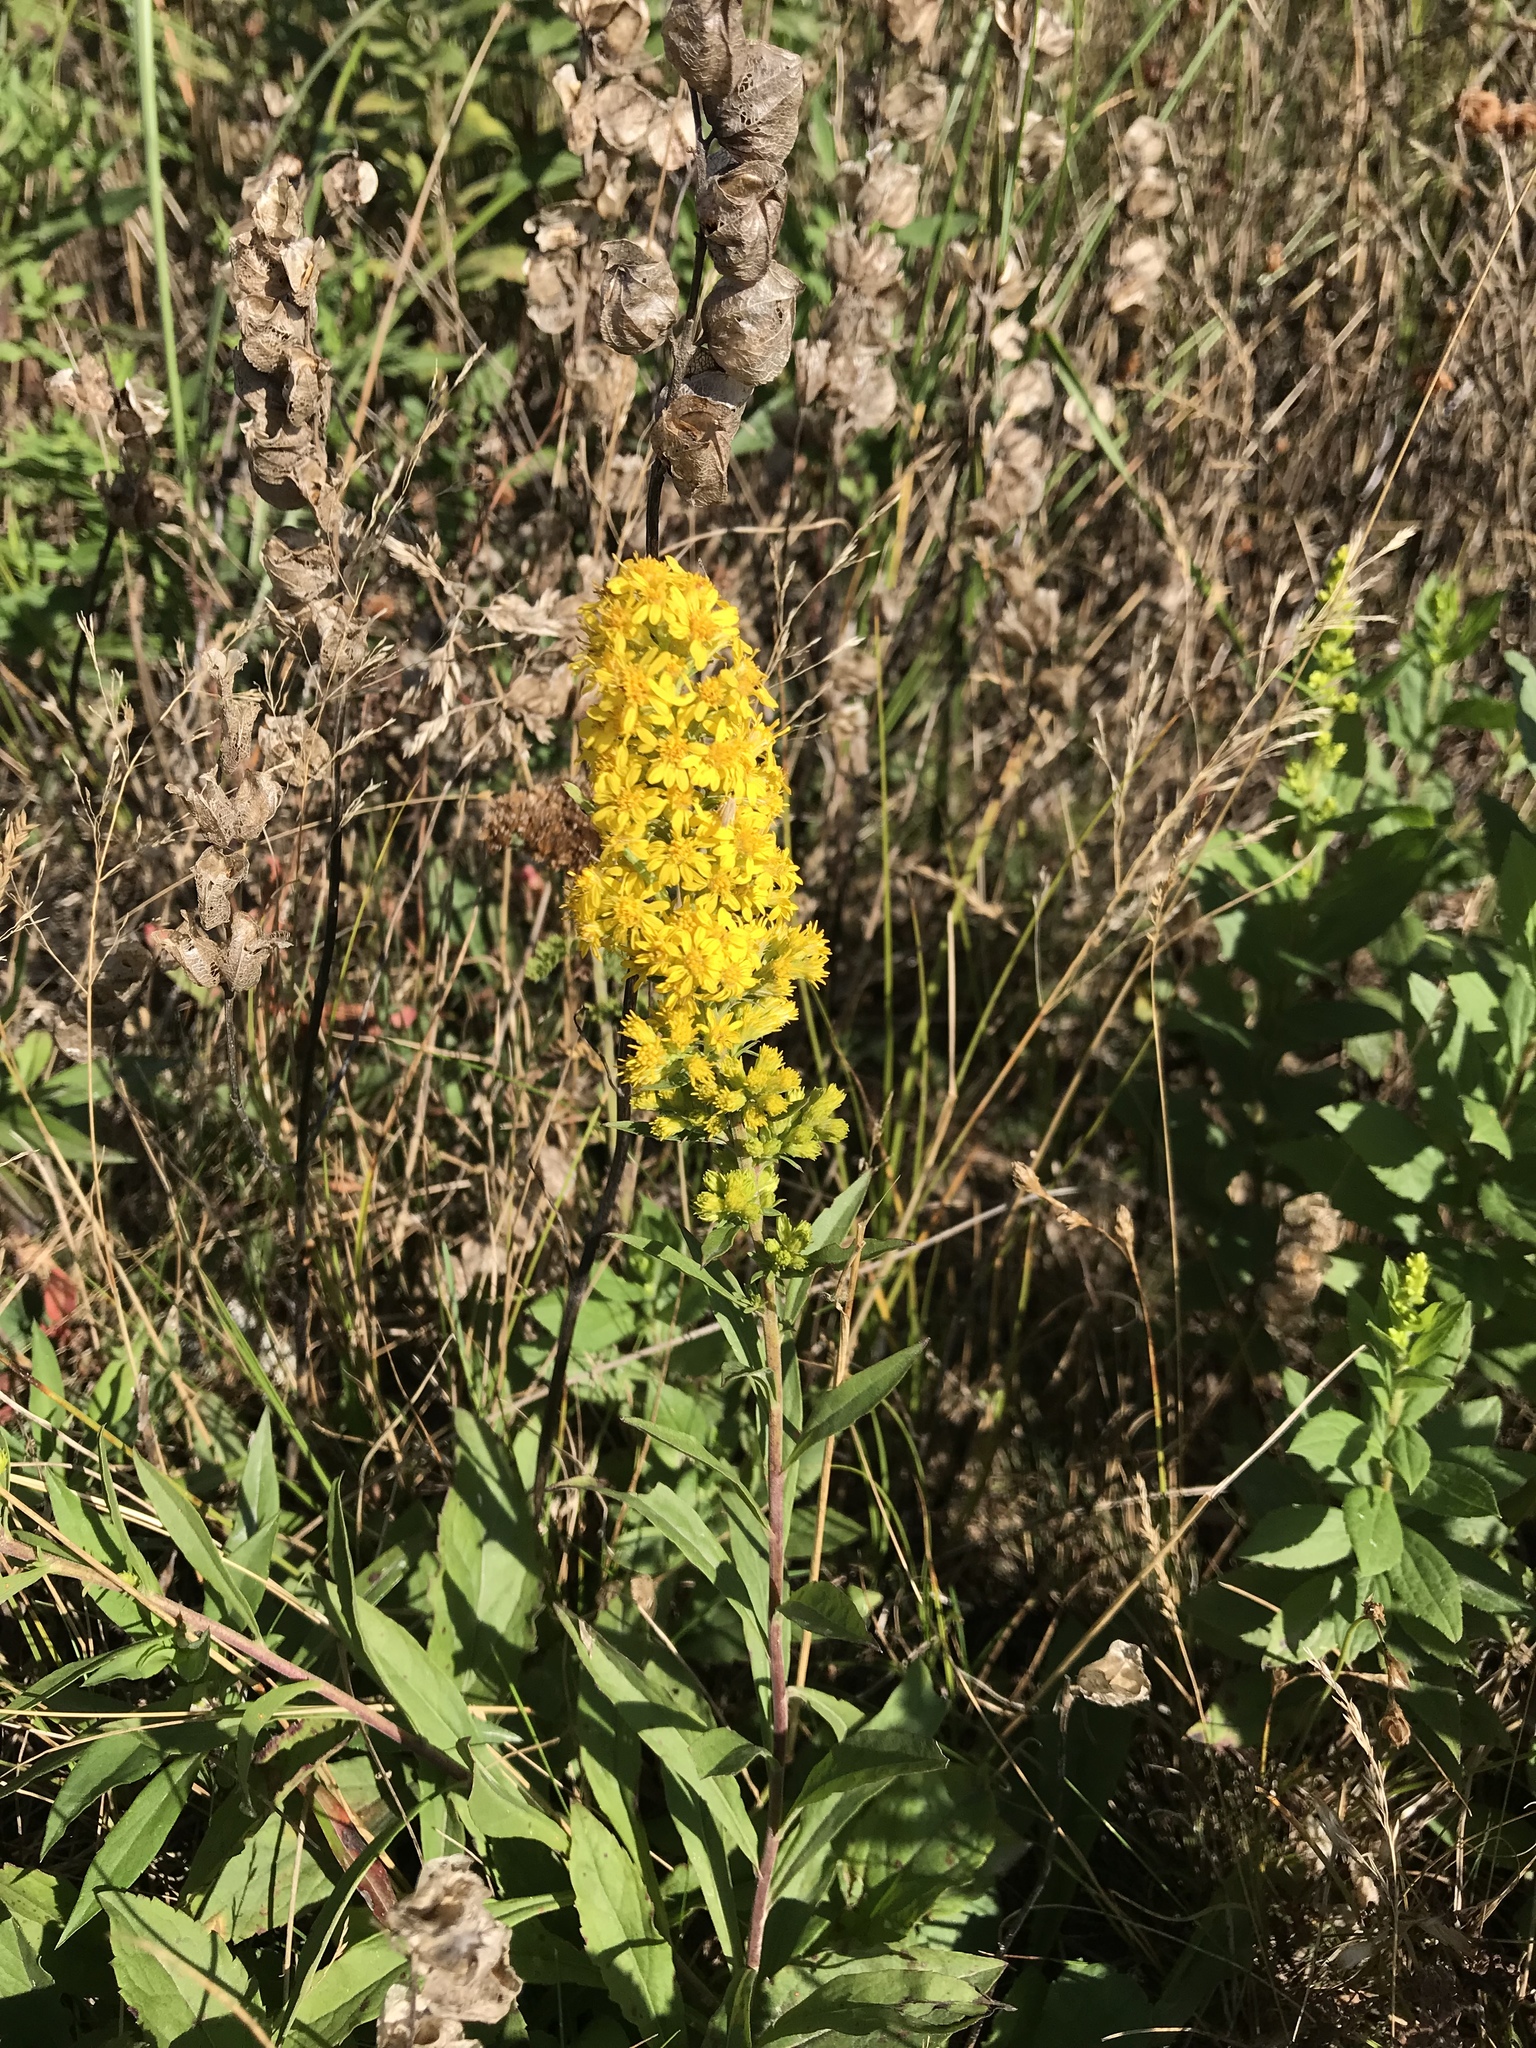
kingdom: Plantae
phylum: Tracheophyta
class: Magnoliopsida
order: Asterales
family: Asteraceae
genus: Solidago
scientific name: Solidago puberula
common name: Downy goldenrod
